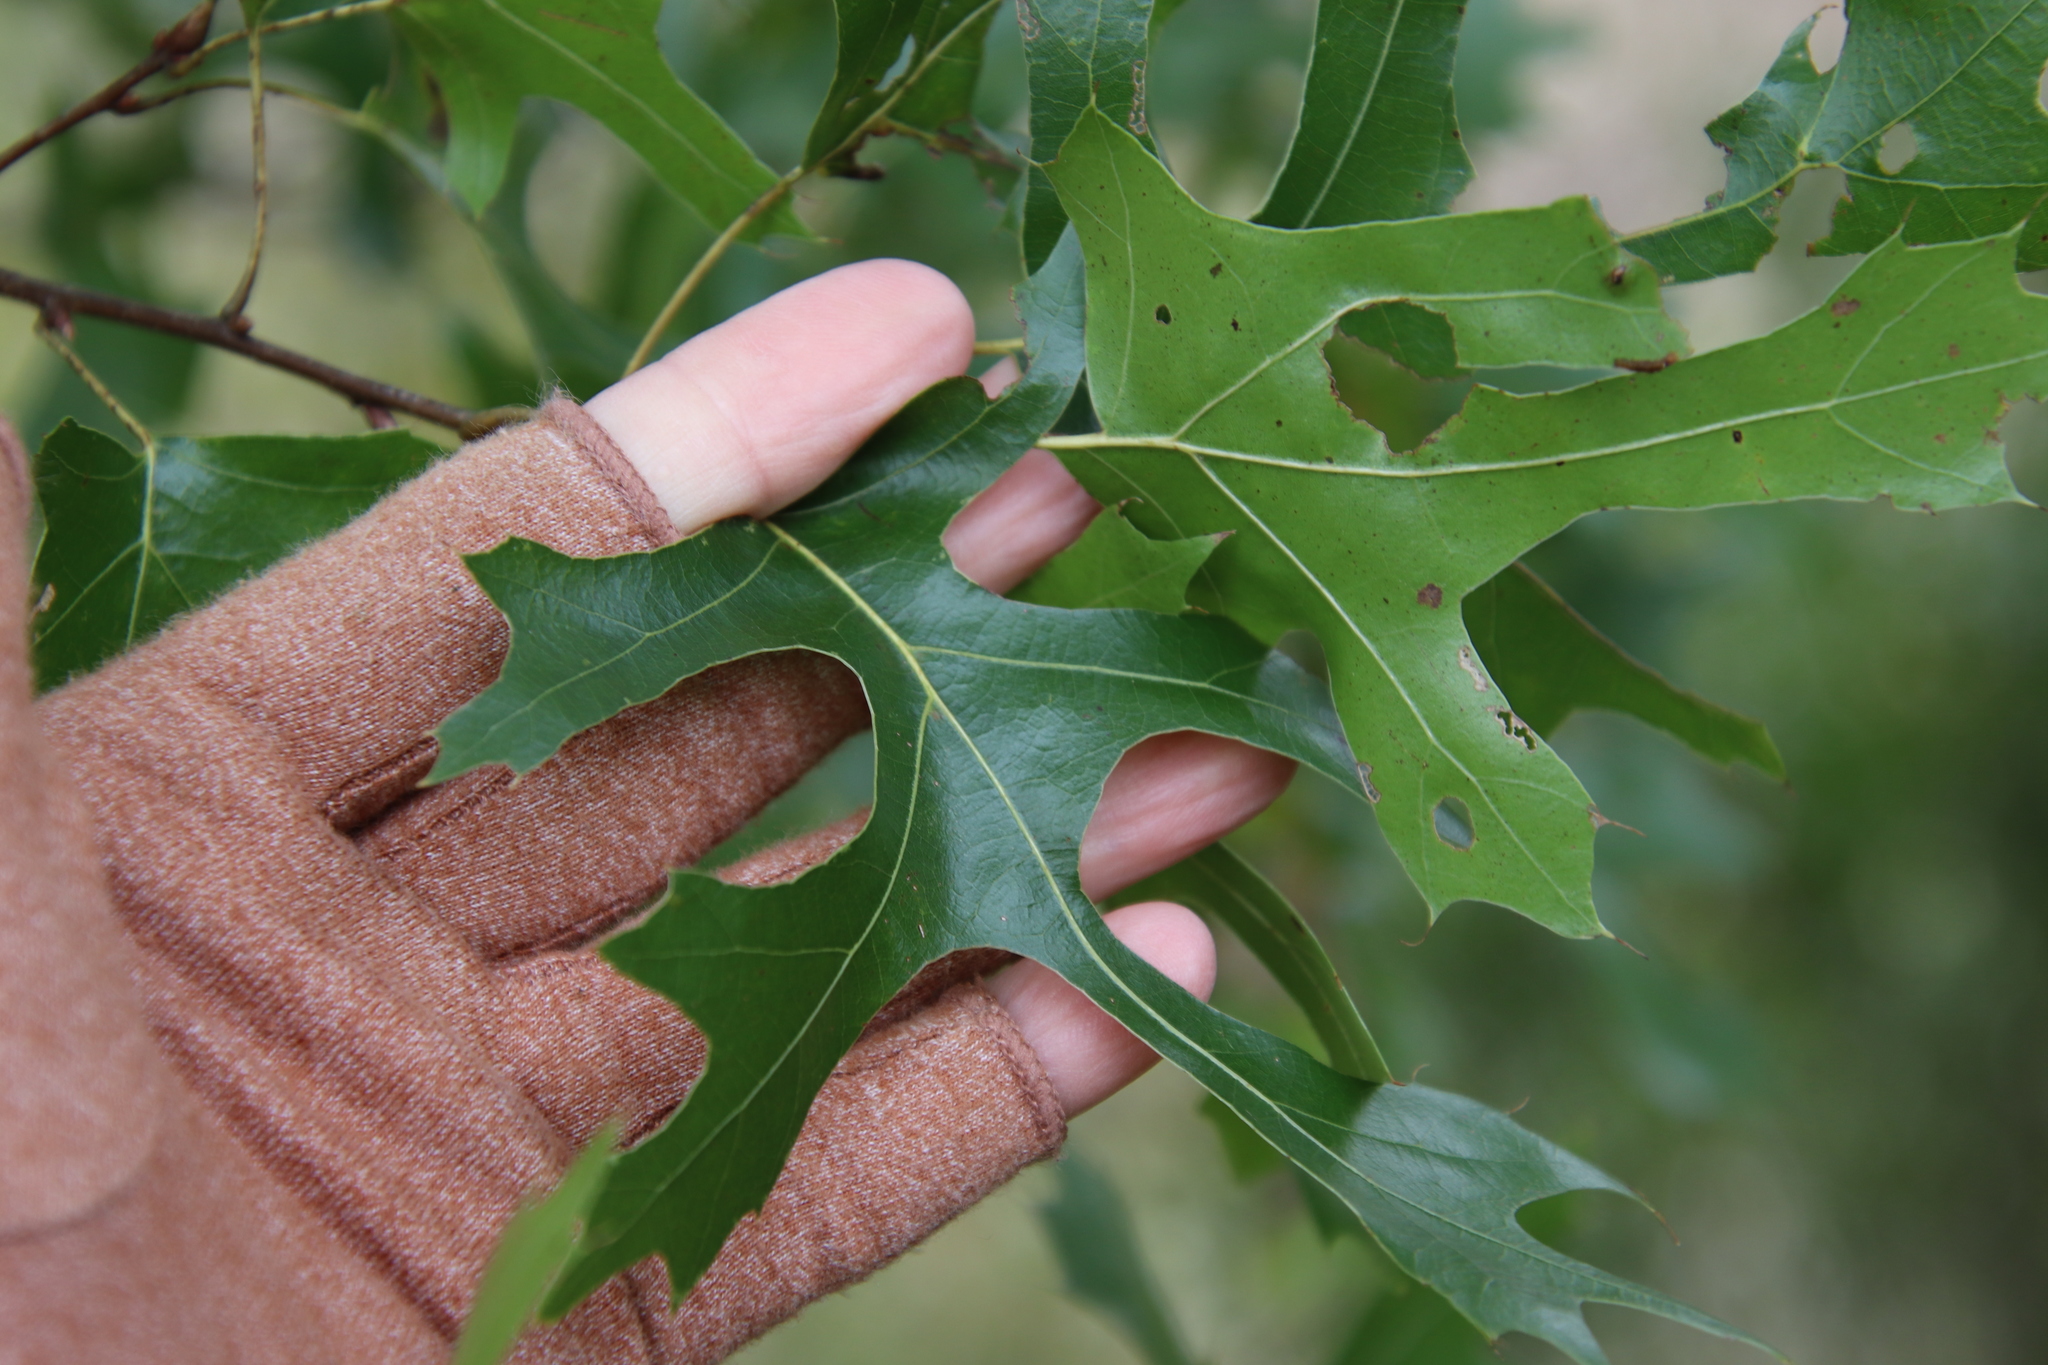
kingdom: Plantae
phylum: Tracheophyta
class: Magnoliopsida
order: Fagales
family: Fagaceae
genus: Quercus
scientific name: Quercus buckleyi
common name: Buckley oak
